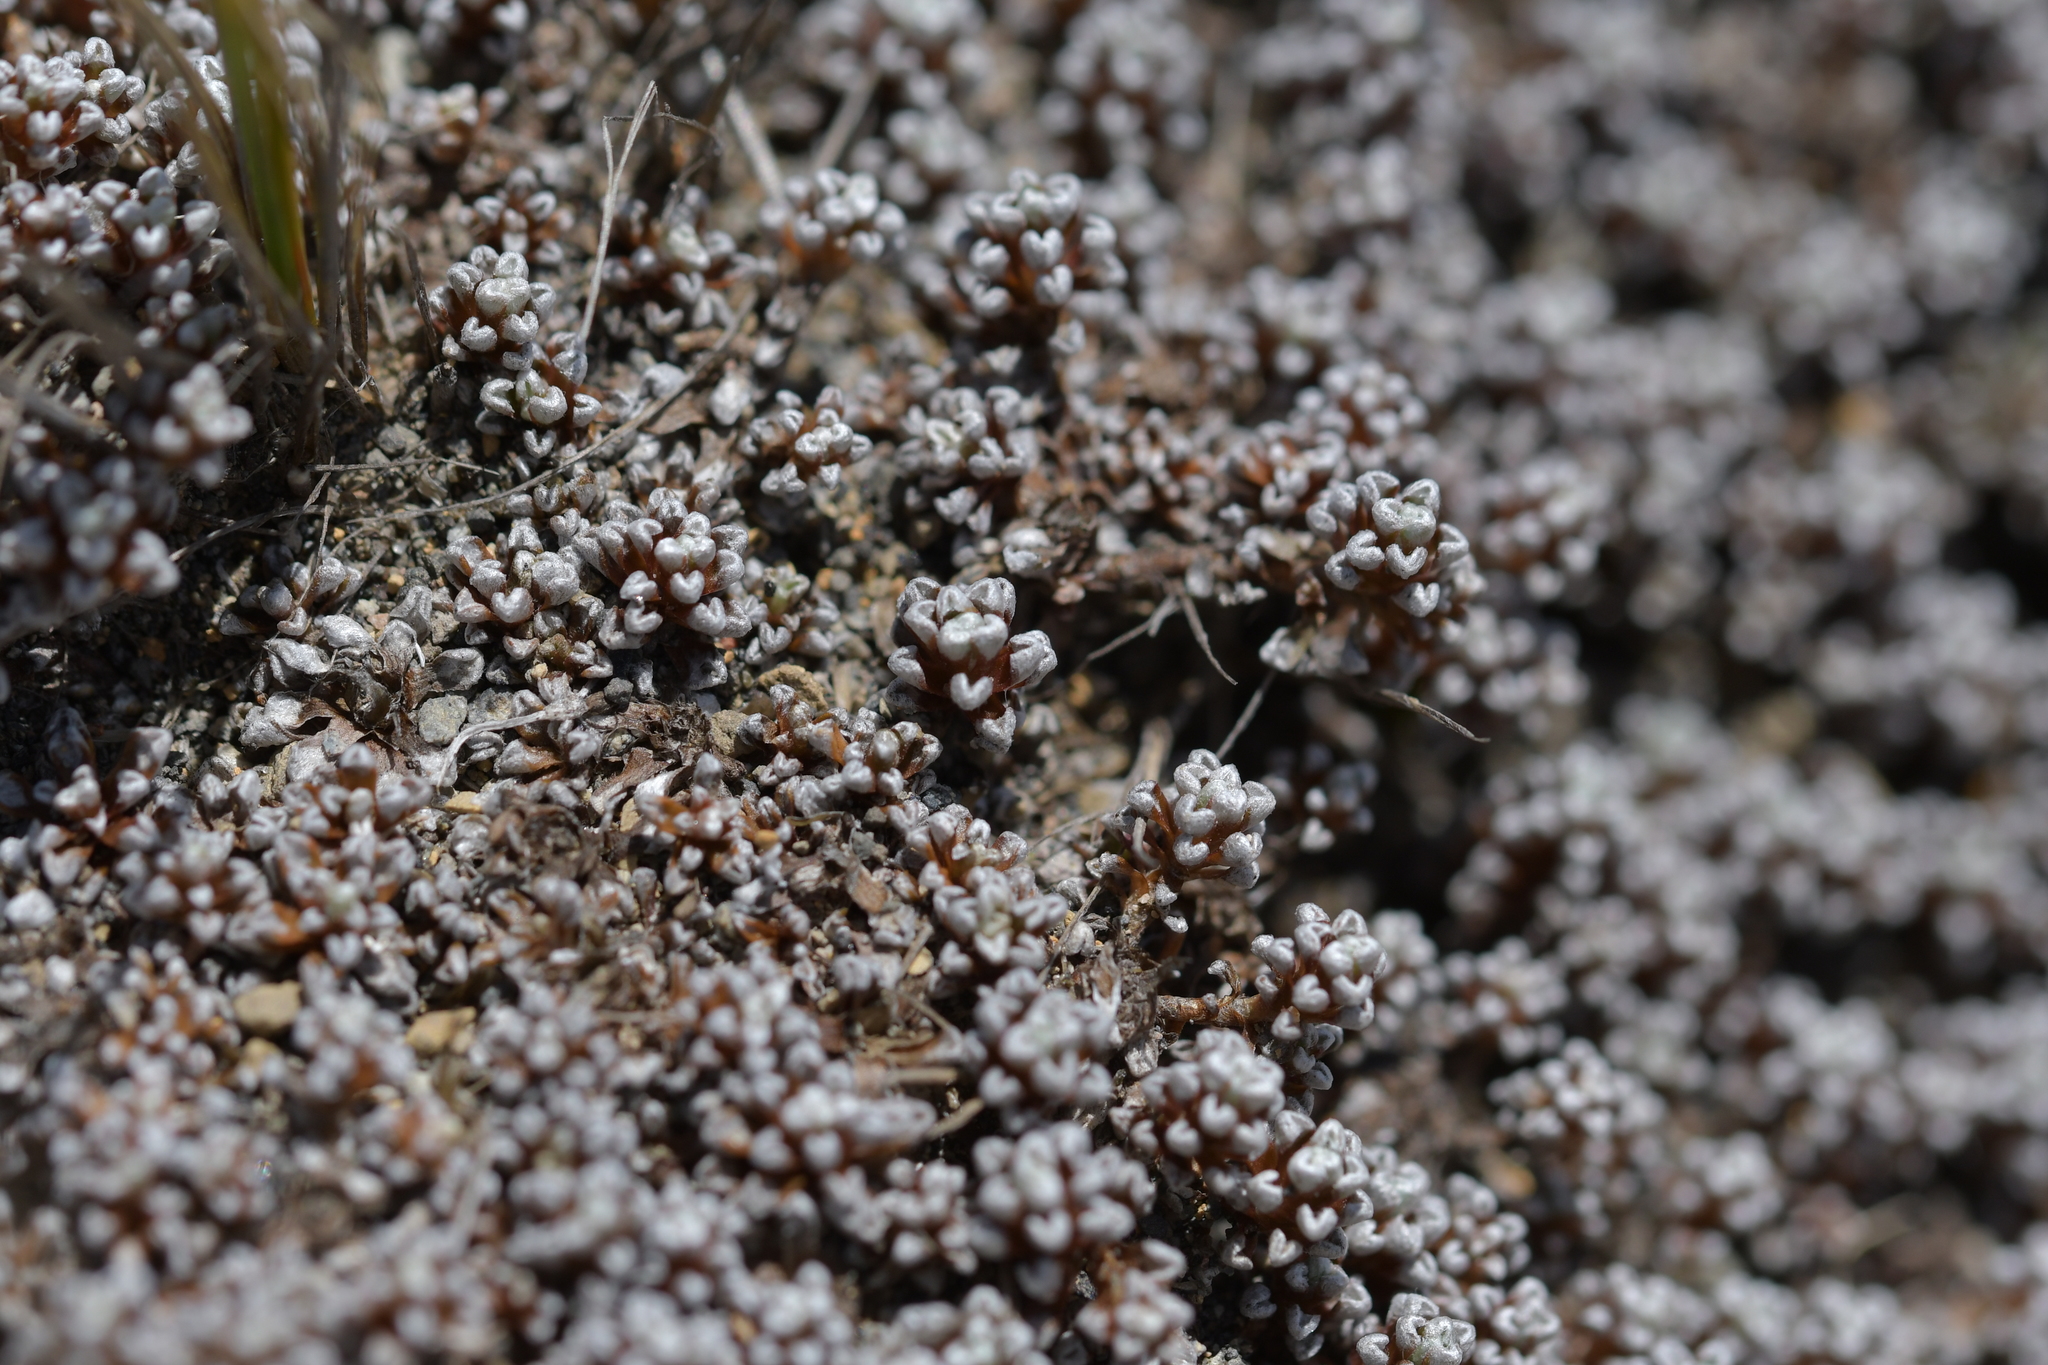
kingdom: Plantae
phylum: Tracheophyta
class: Magnoliopsida
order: Asterales
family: Asteraceae
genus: Raoulia
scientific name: Raoulia albosericea
